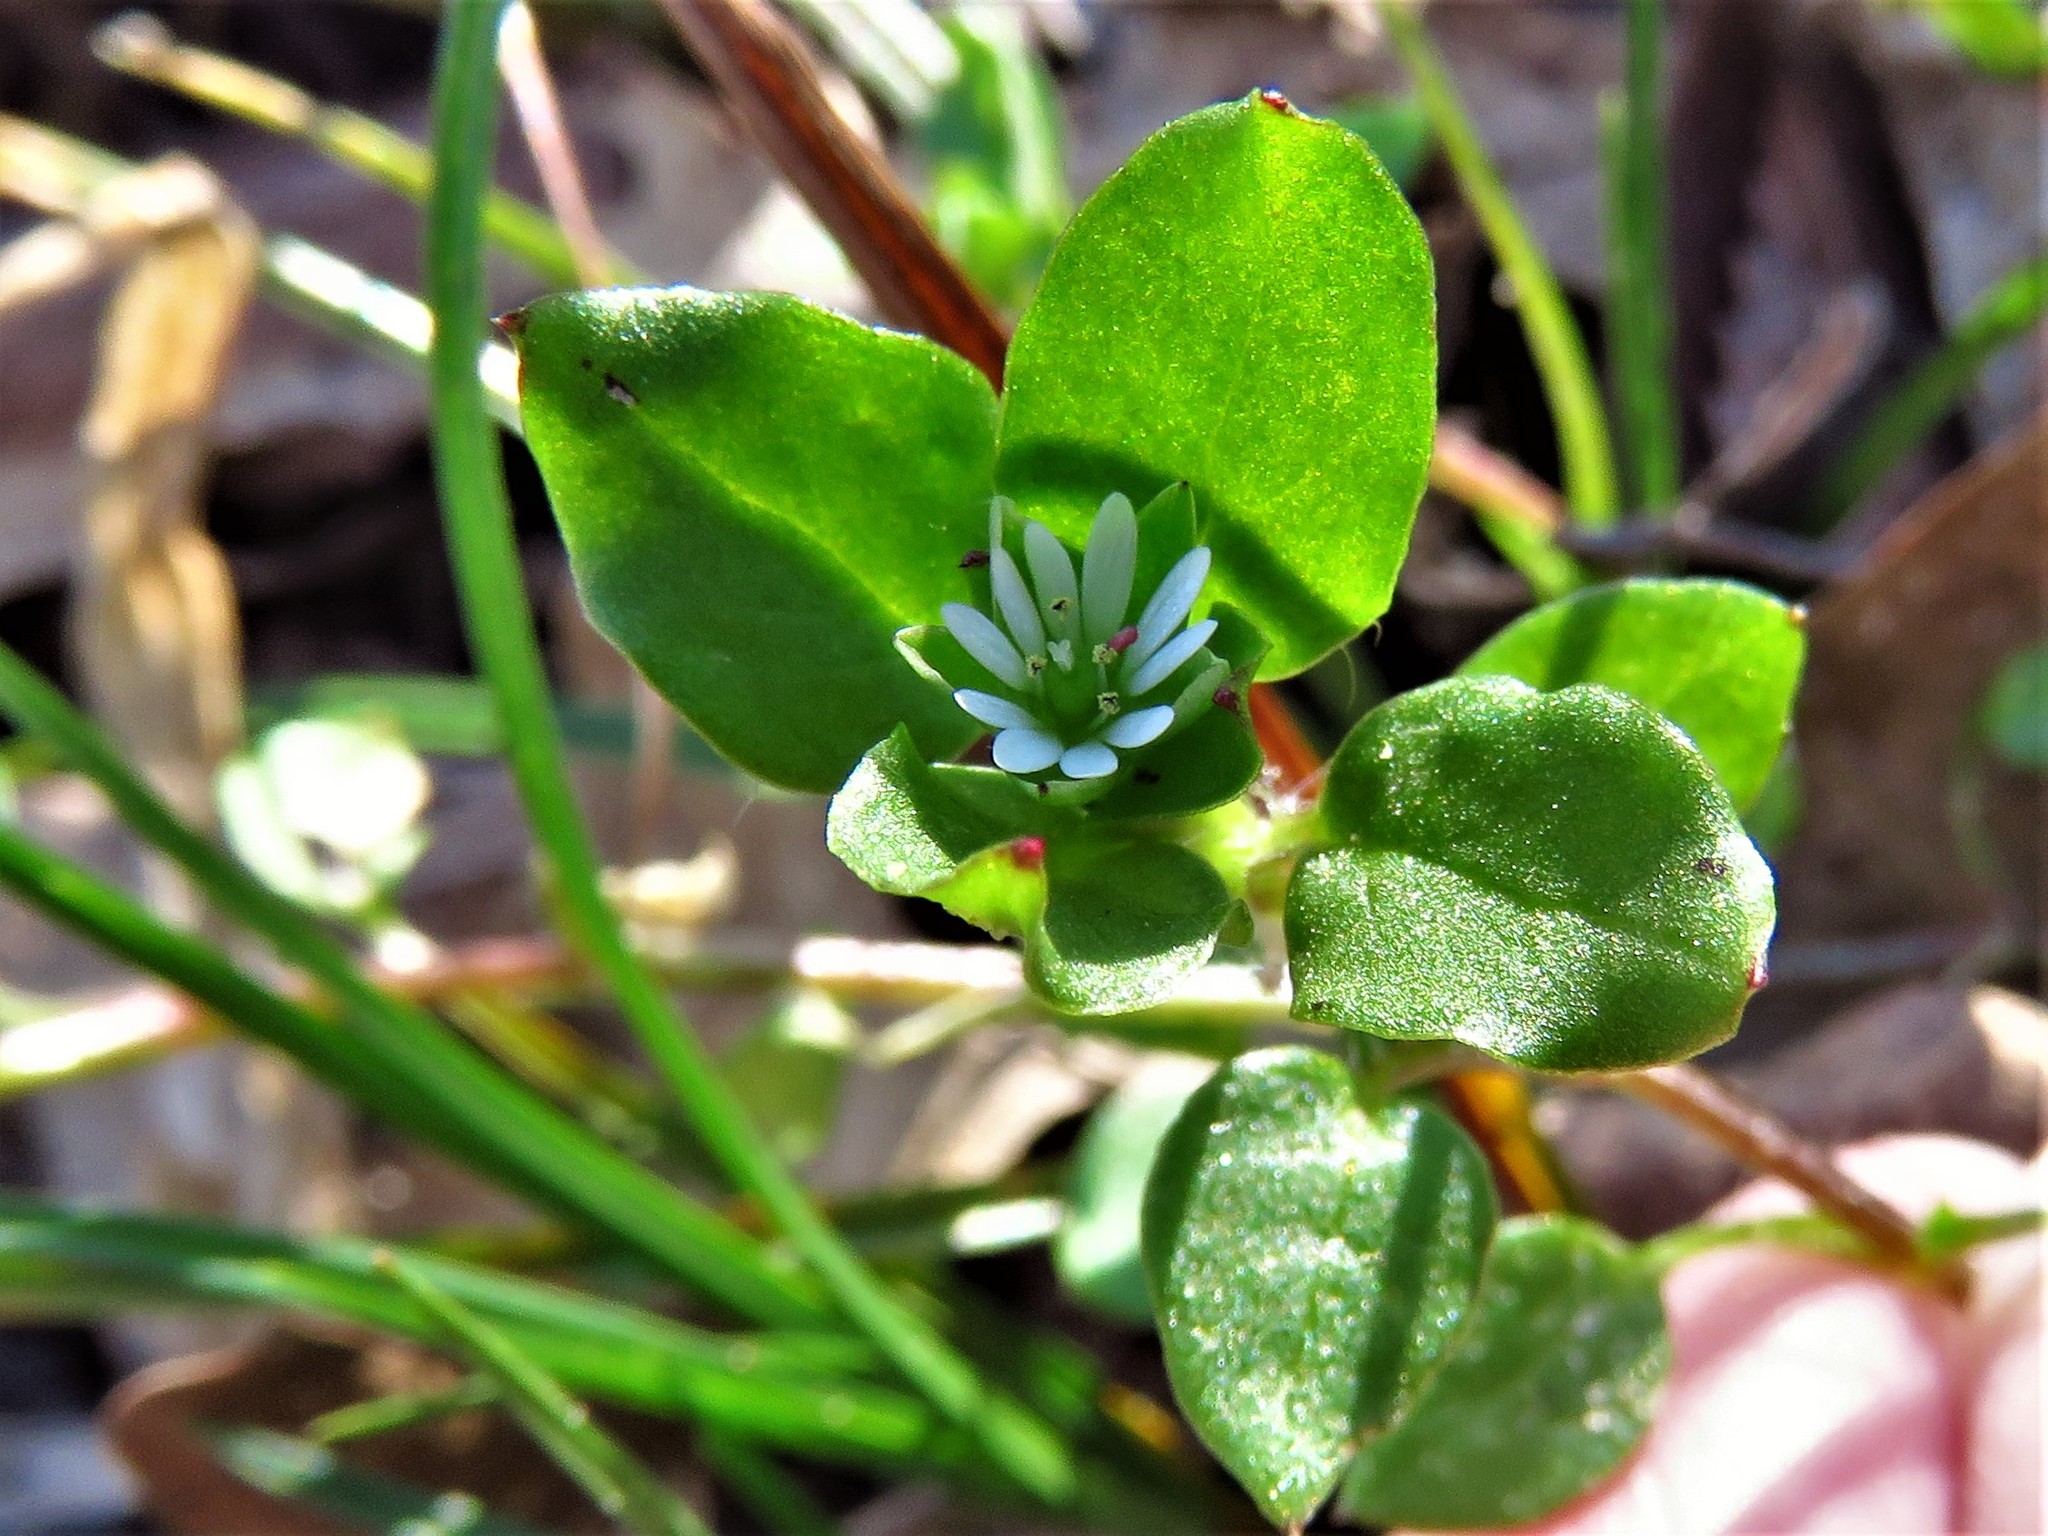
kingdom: Plantae
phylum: Tracheophyta
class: Magnoliopsida
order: Caryophyllales
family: Caryophyllaceae
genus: Stellaria
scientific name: Stellaria media
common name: Common chickweed
